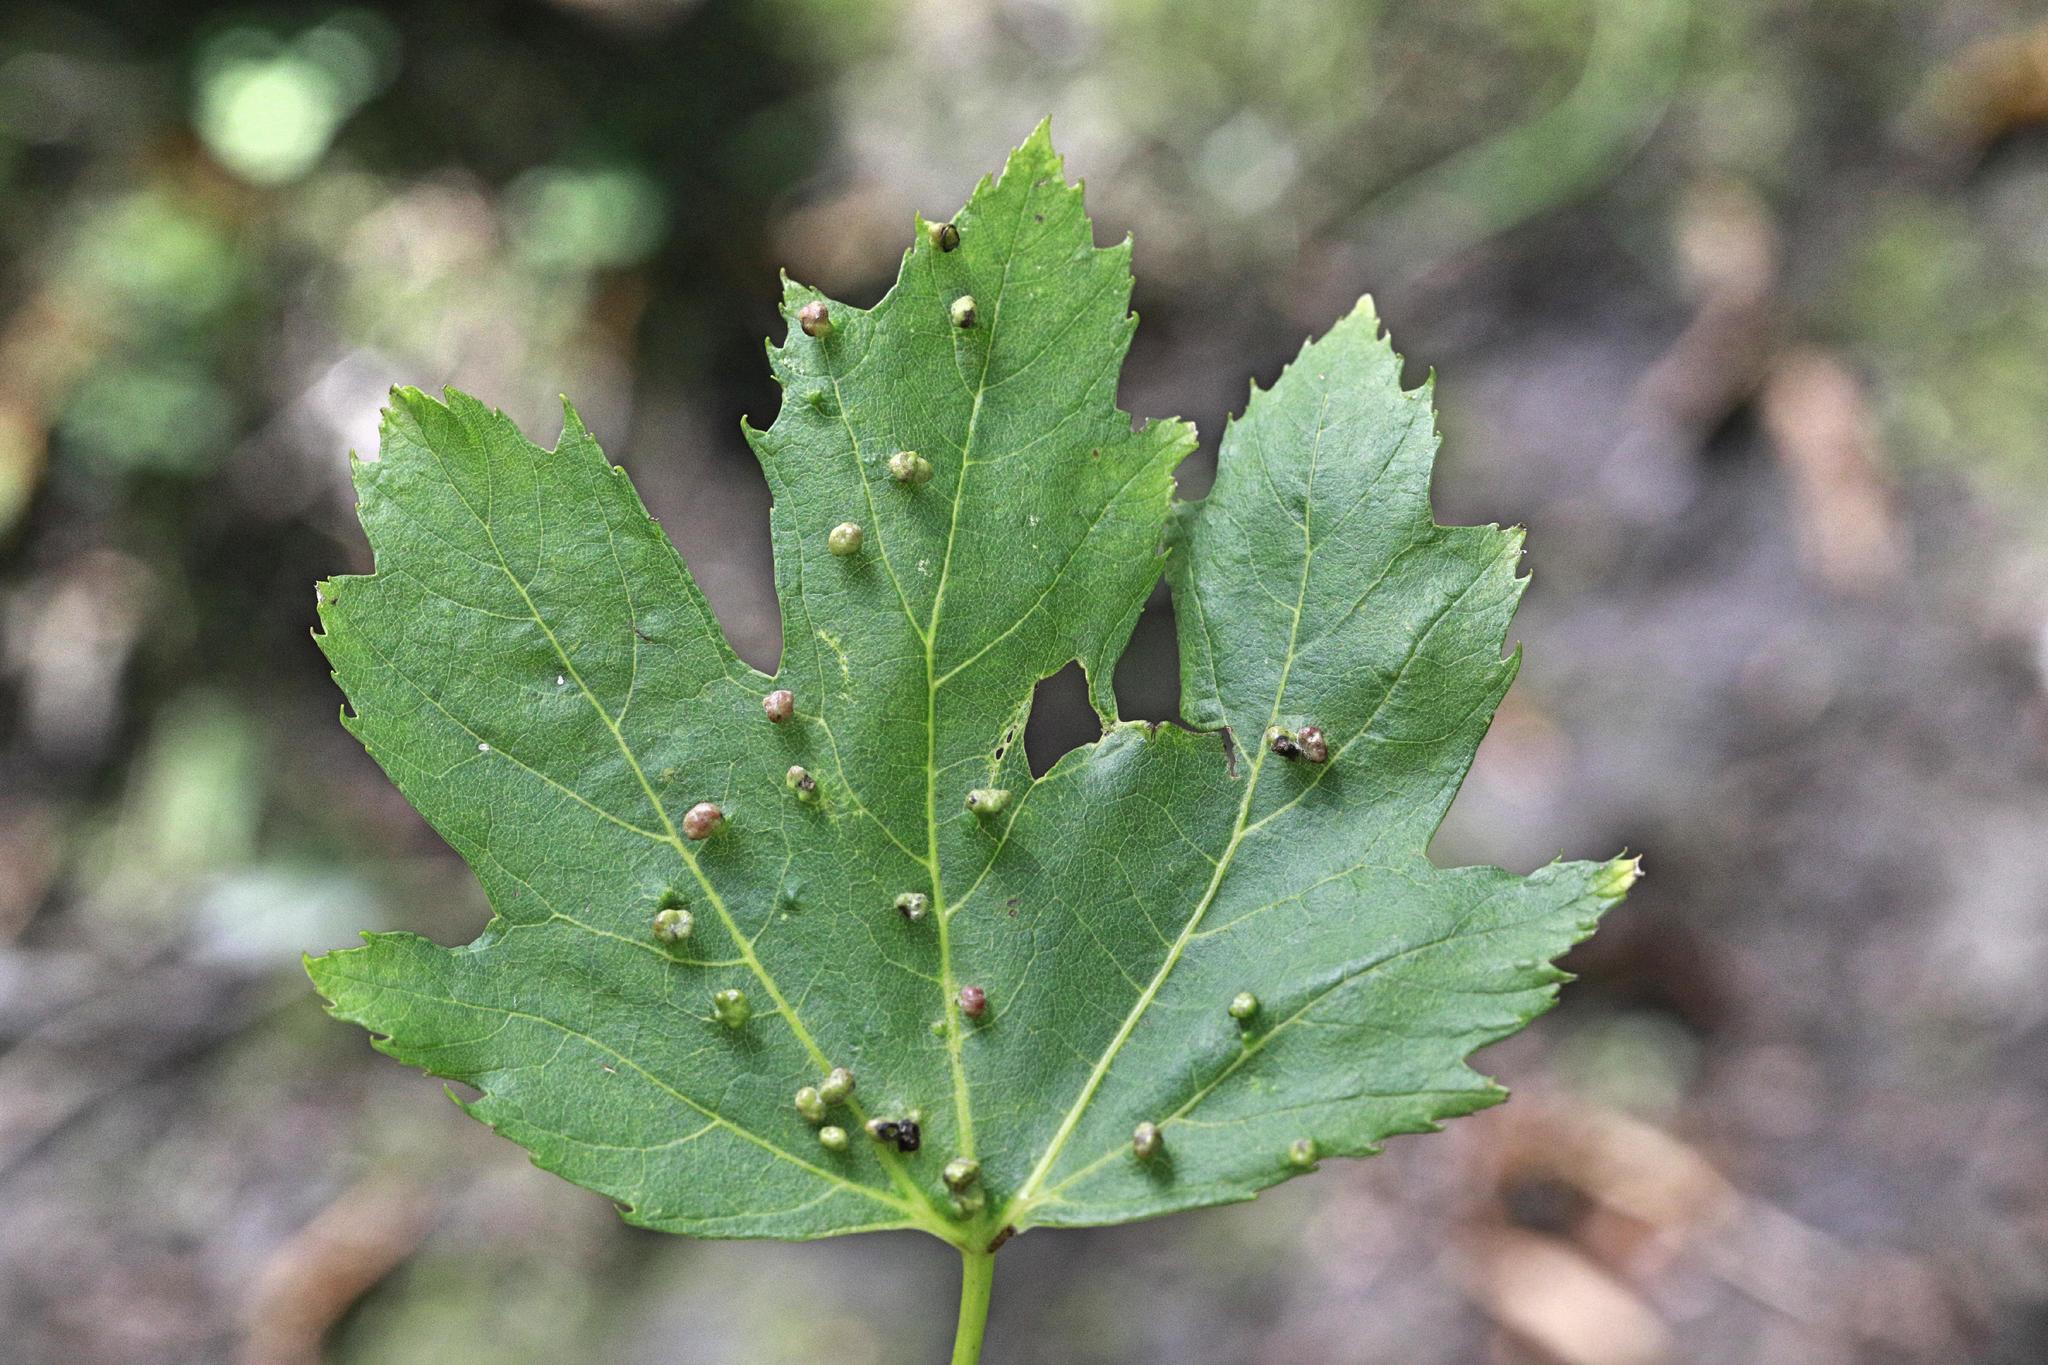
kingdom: Animalia
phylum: Arthropoda
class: Arachnida
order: Trombidiformes
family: Eriophyidae
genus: Vasates
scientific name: Vasates quadripedes
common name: Maple bladder gall mite
